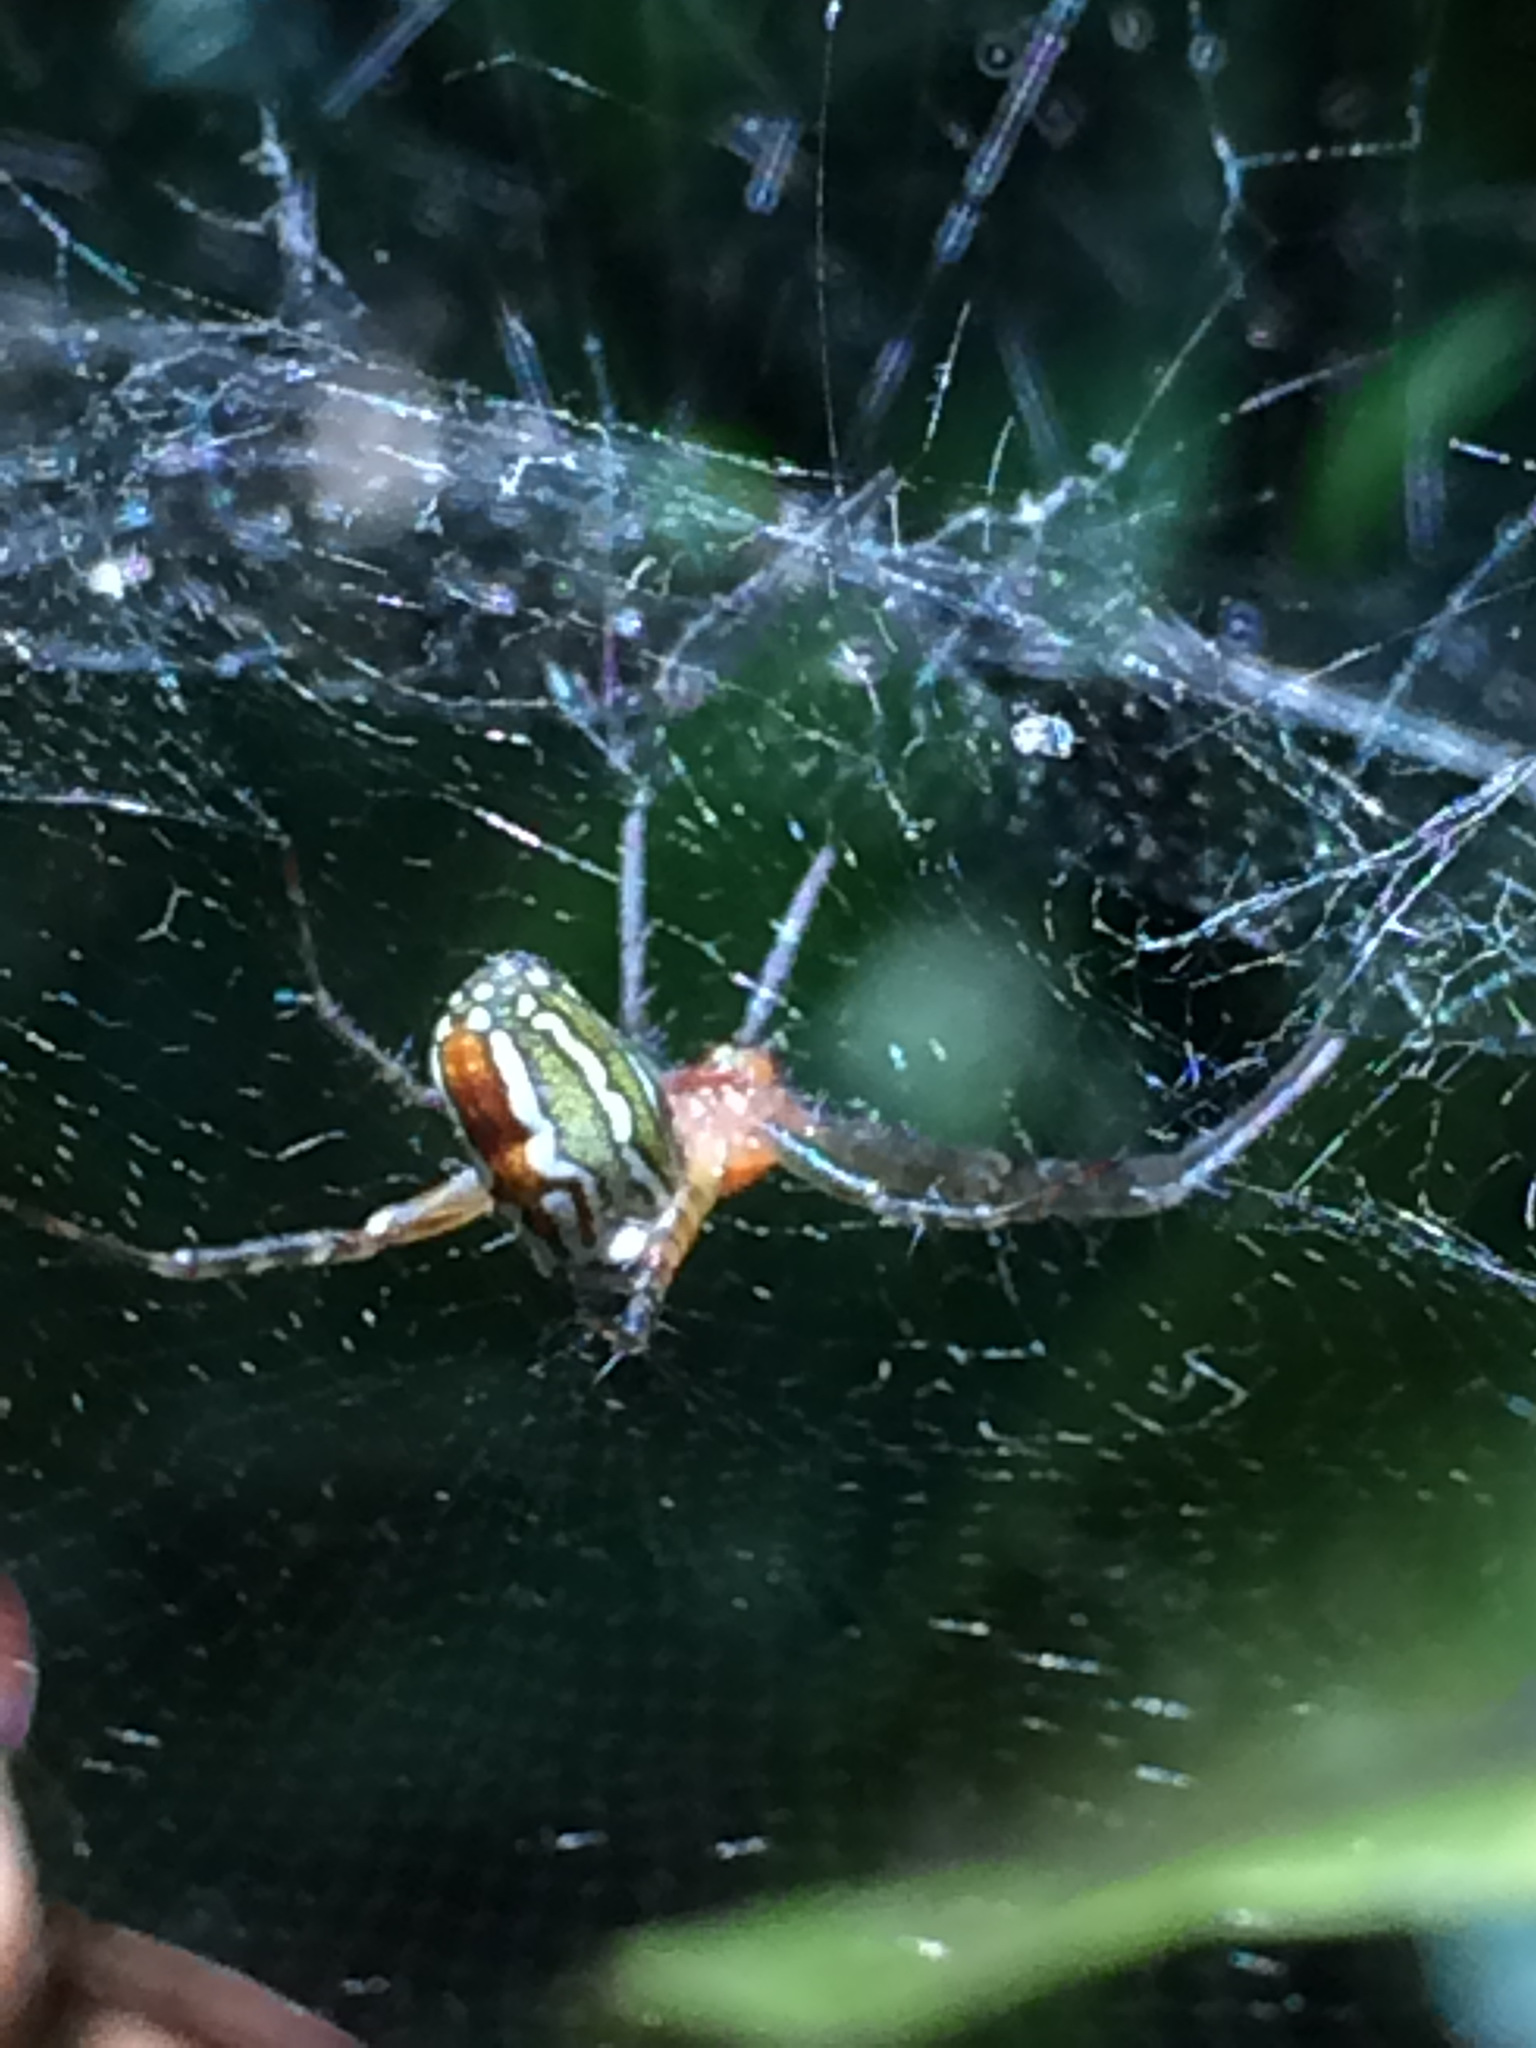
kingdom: Animalia
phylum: Arthropoda
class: Arachnida
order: Araneae
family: Araneidae
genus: Manogea
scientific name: Manogea porracea
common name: Orb weavers
